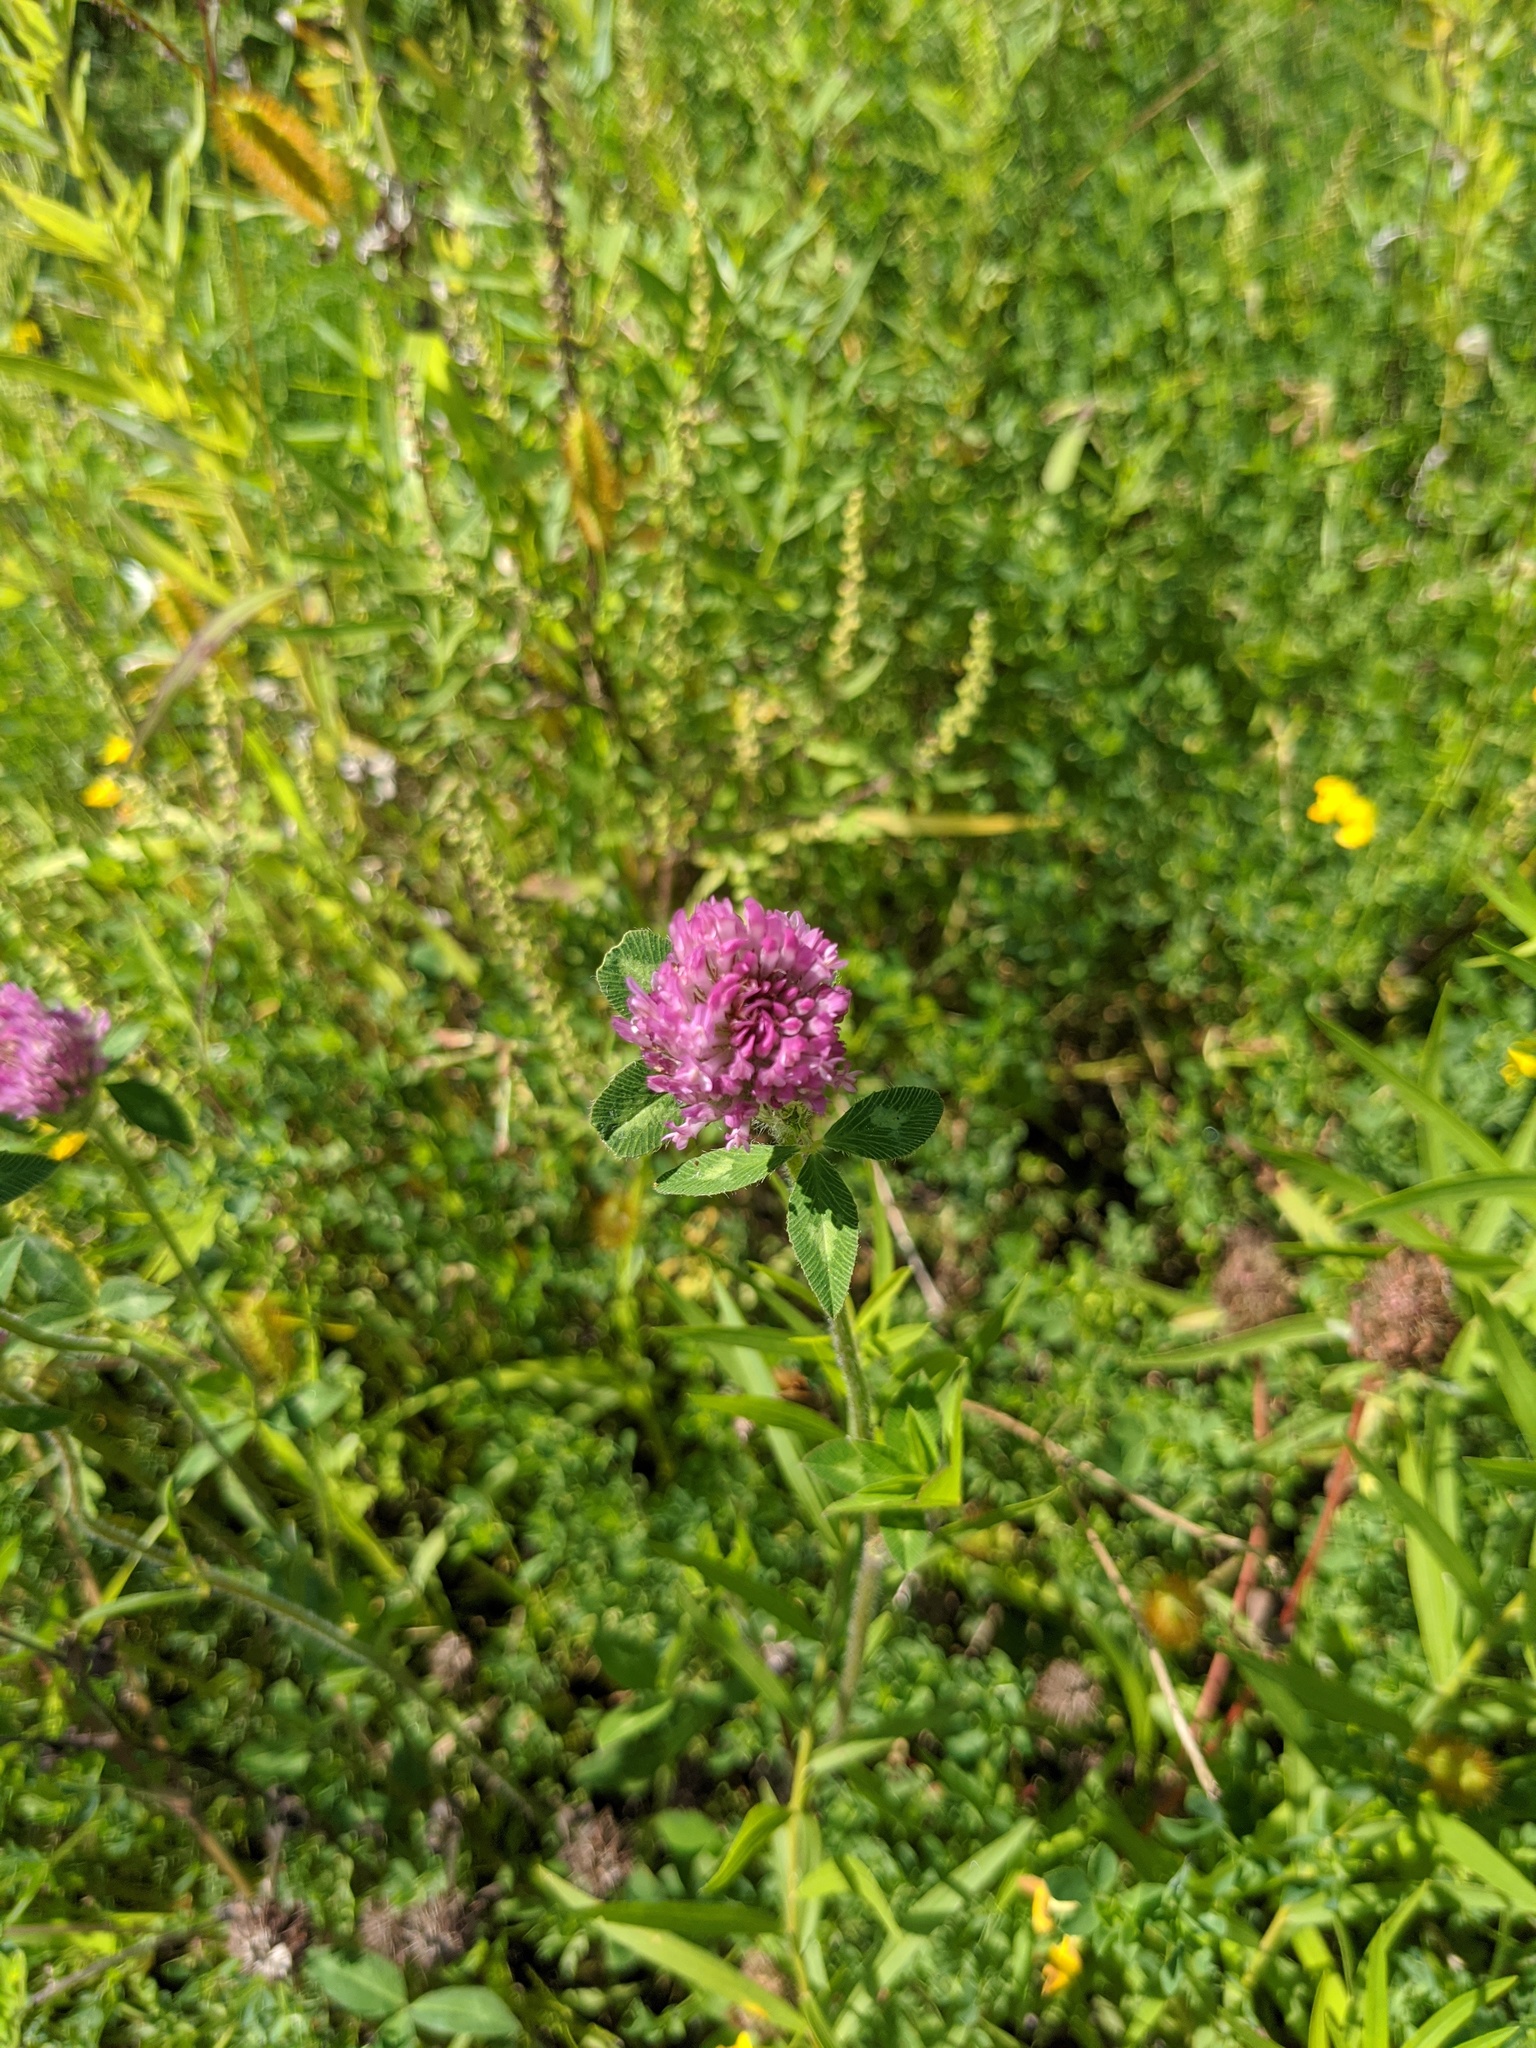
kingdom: Plantae
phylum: Tracheophyta
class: Magnoliopsida
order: Fabales
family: Fabaceae
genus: Trifolium
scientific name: Trifolium pratense
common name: Red clover
